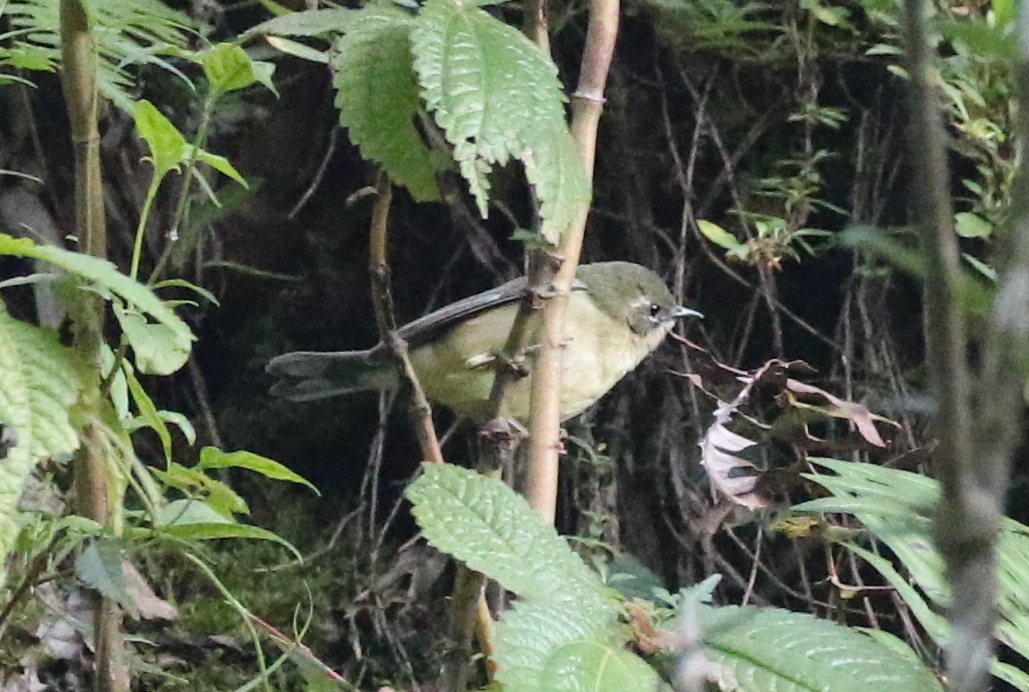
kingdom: Animalia
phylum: Chordata
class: Aves
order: Passeriformes
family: Parulidae
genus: Setophaga
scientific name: Setophaga caerulescens
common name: Black-throated blue warbler
